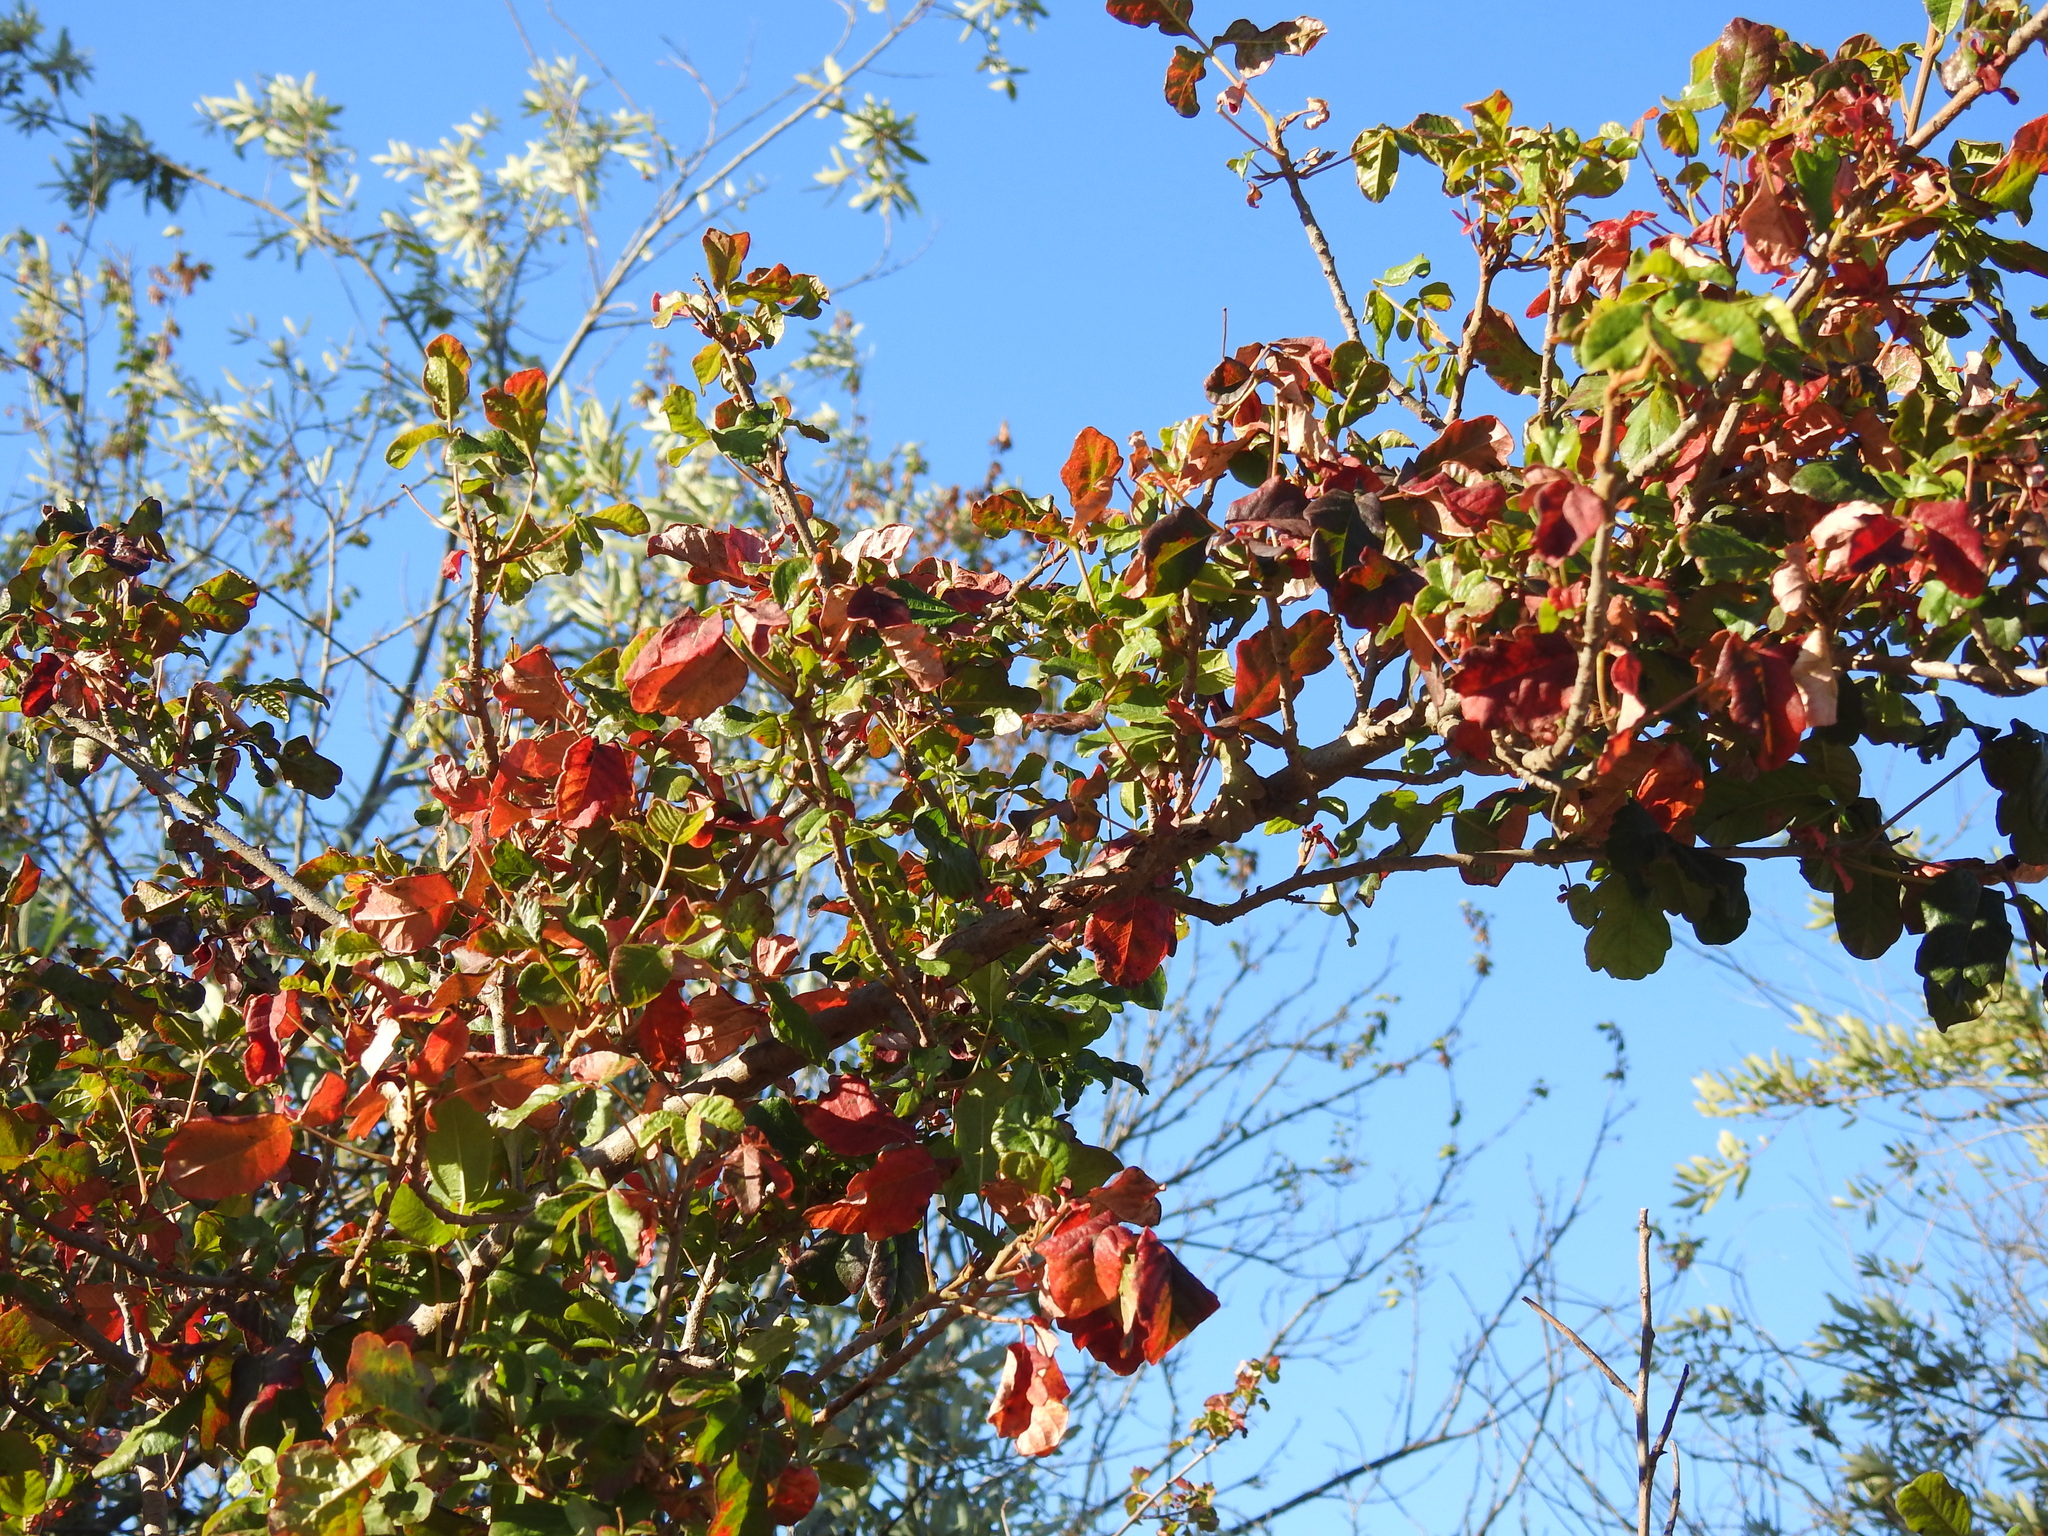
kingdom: Plantae
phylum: Tracheophyta
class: Magnoliopsida
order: Sapindales
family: Anacardiaceae
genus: Toxicodendron
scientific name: Toxicodendron diversilobum
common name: Pacific poison-oak
